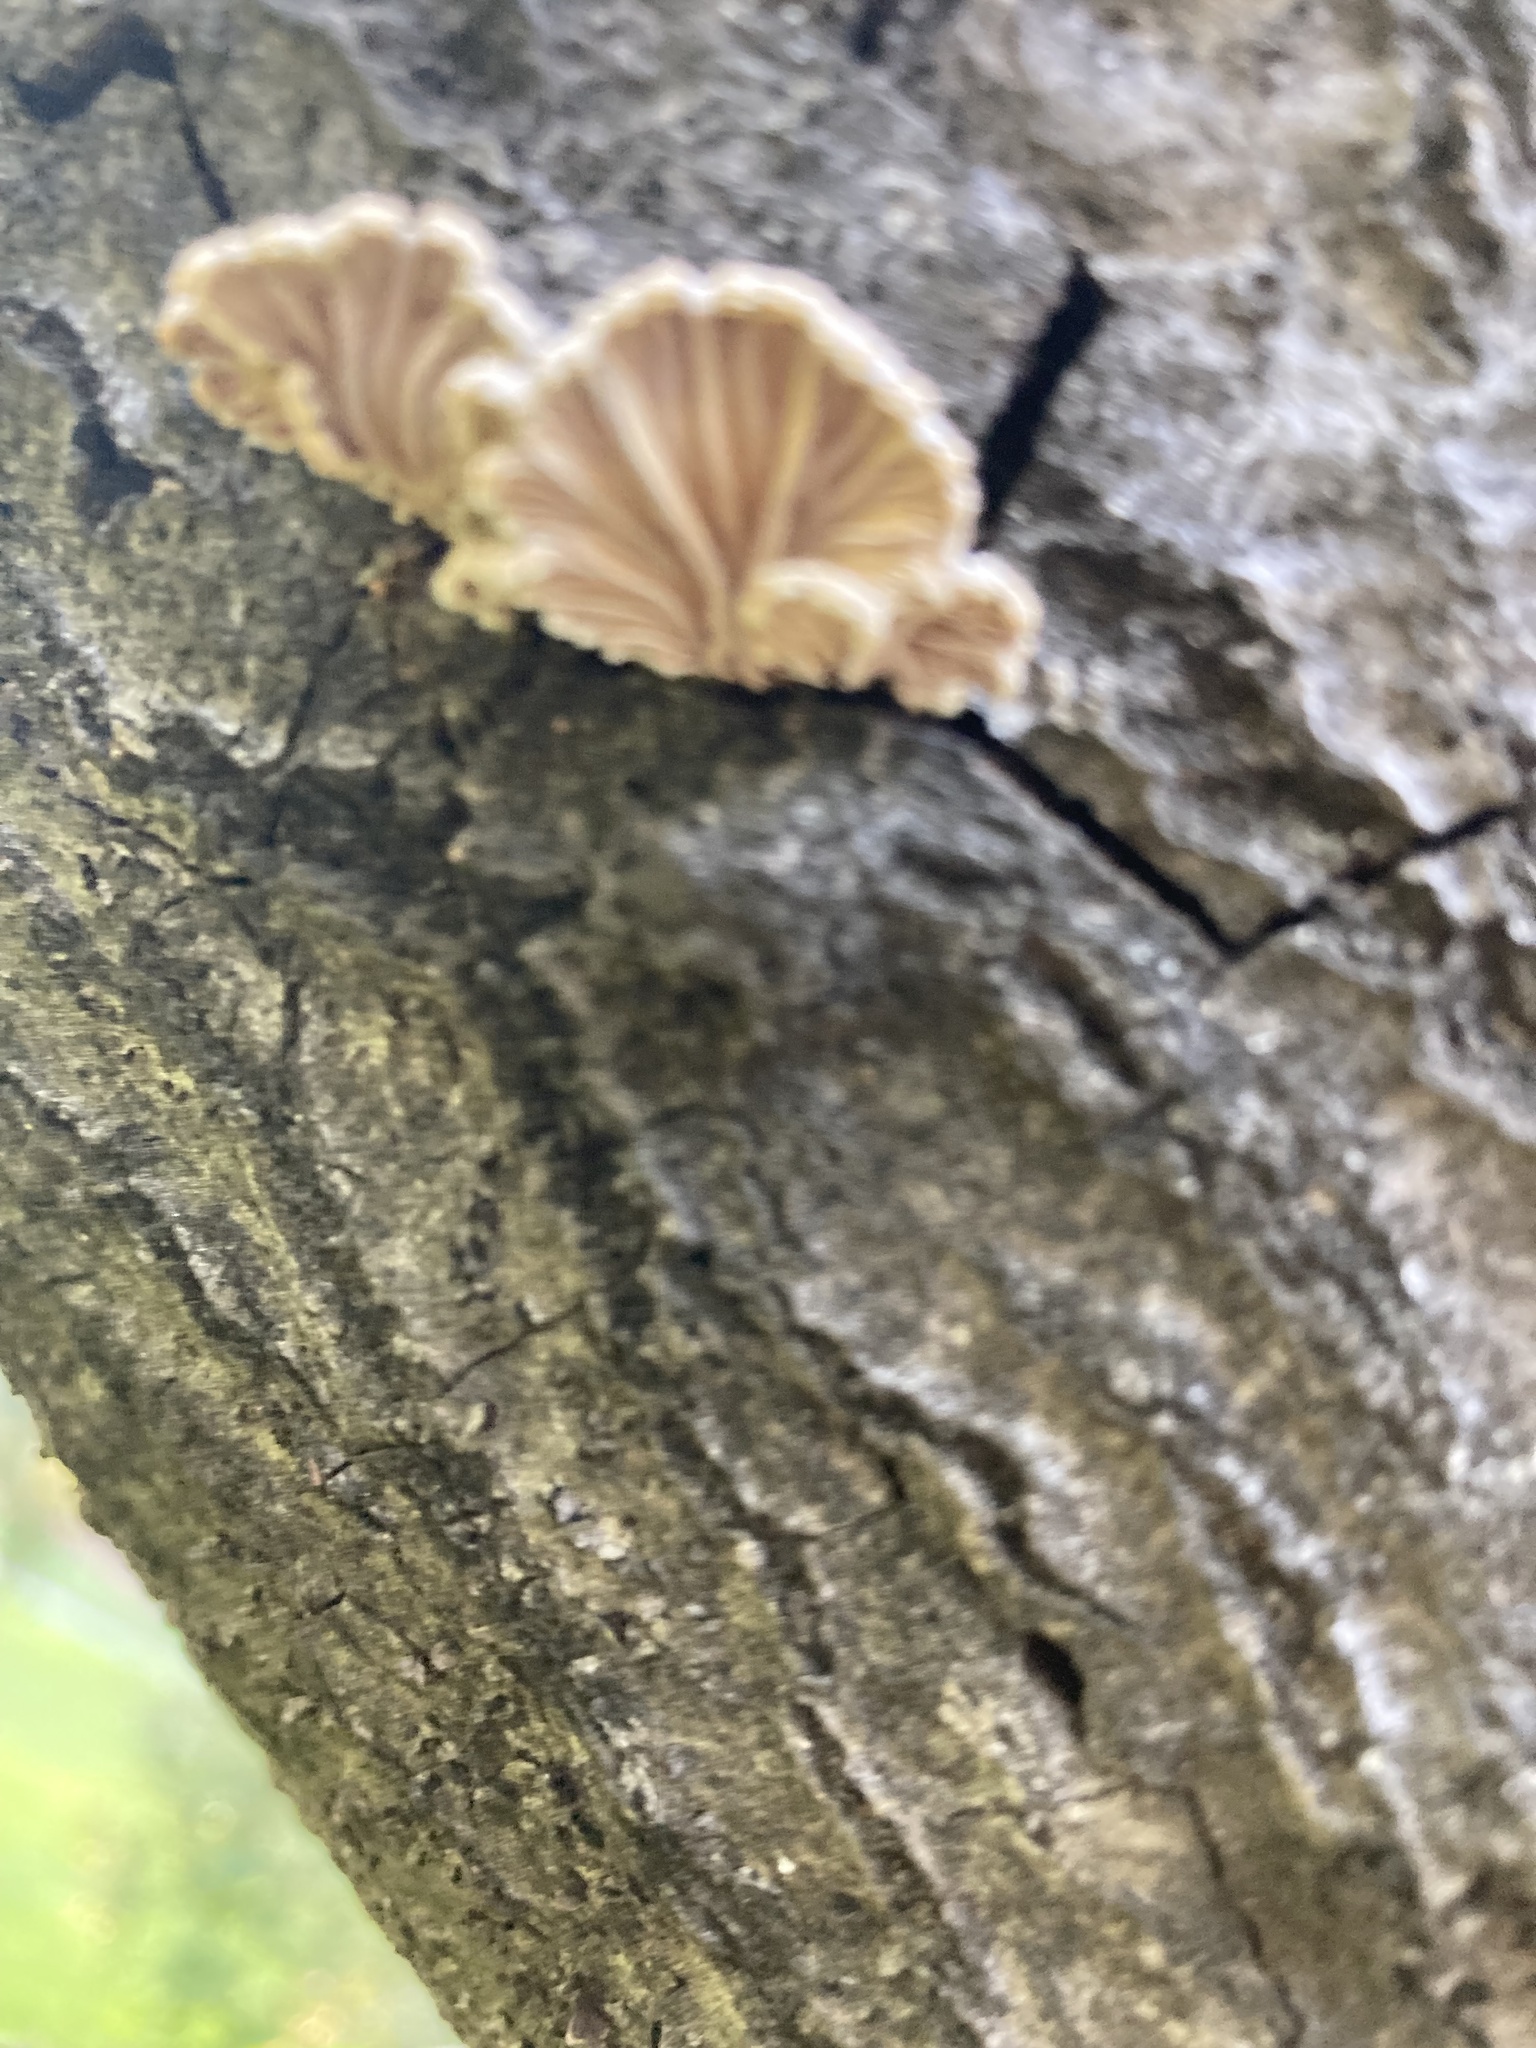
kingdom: Fungi
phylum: Basidiomycota
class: Agaricomycetes
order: Agaricales
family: Schizophyllaceae
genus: Schizophyllum
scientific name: Schizophyllum commune
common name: Common porecrust
